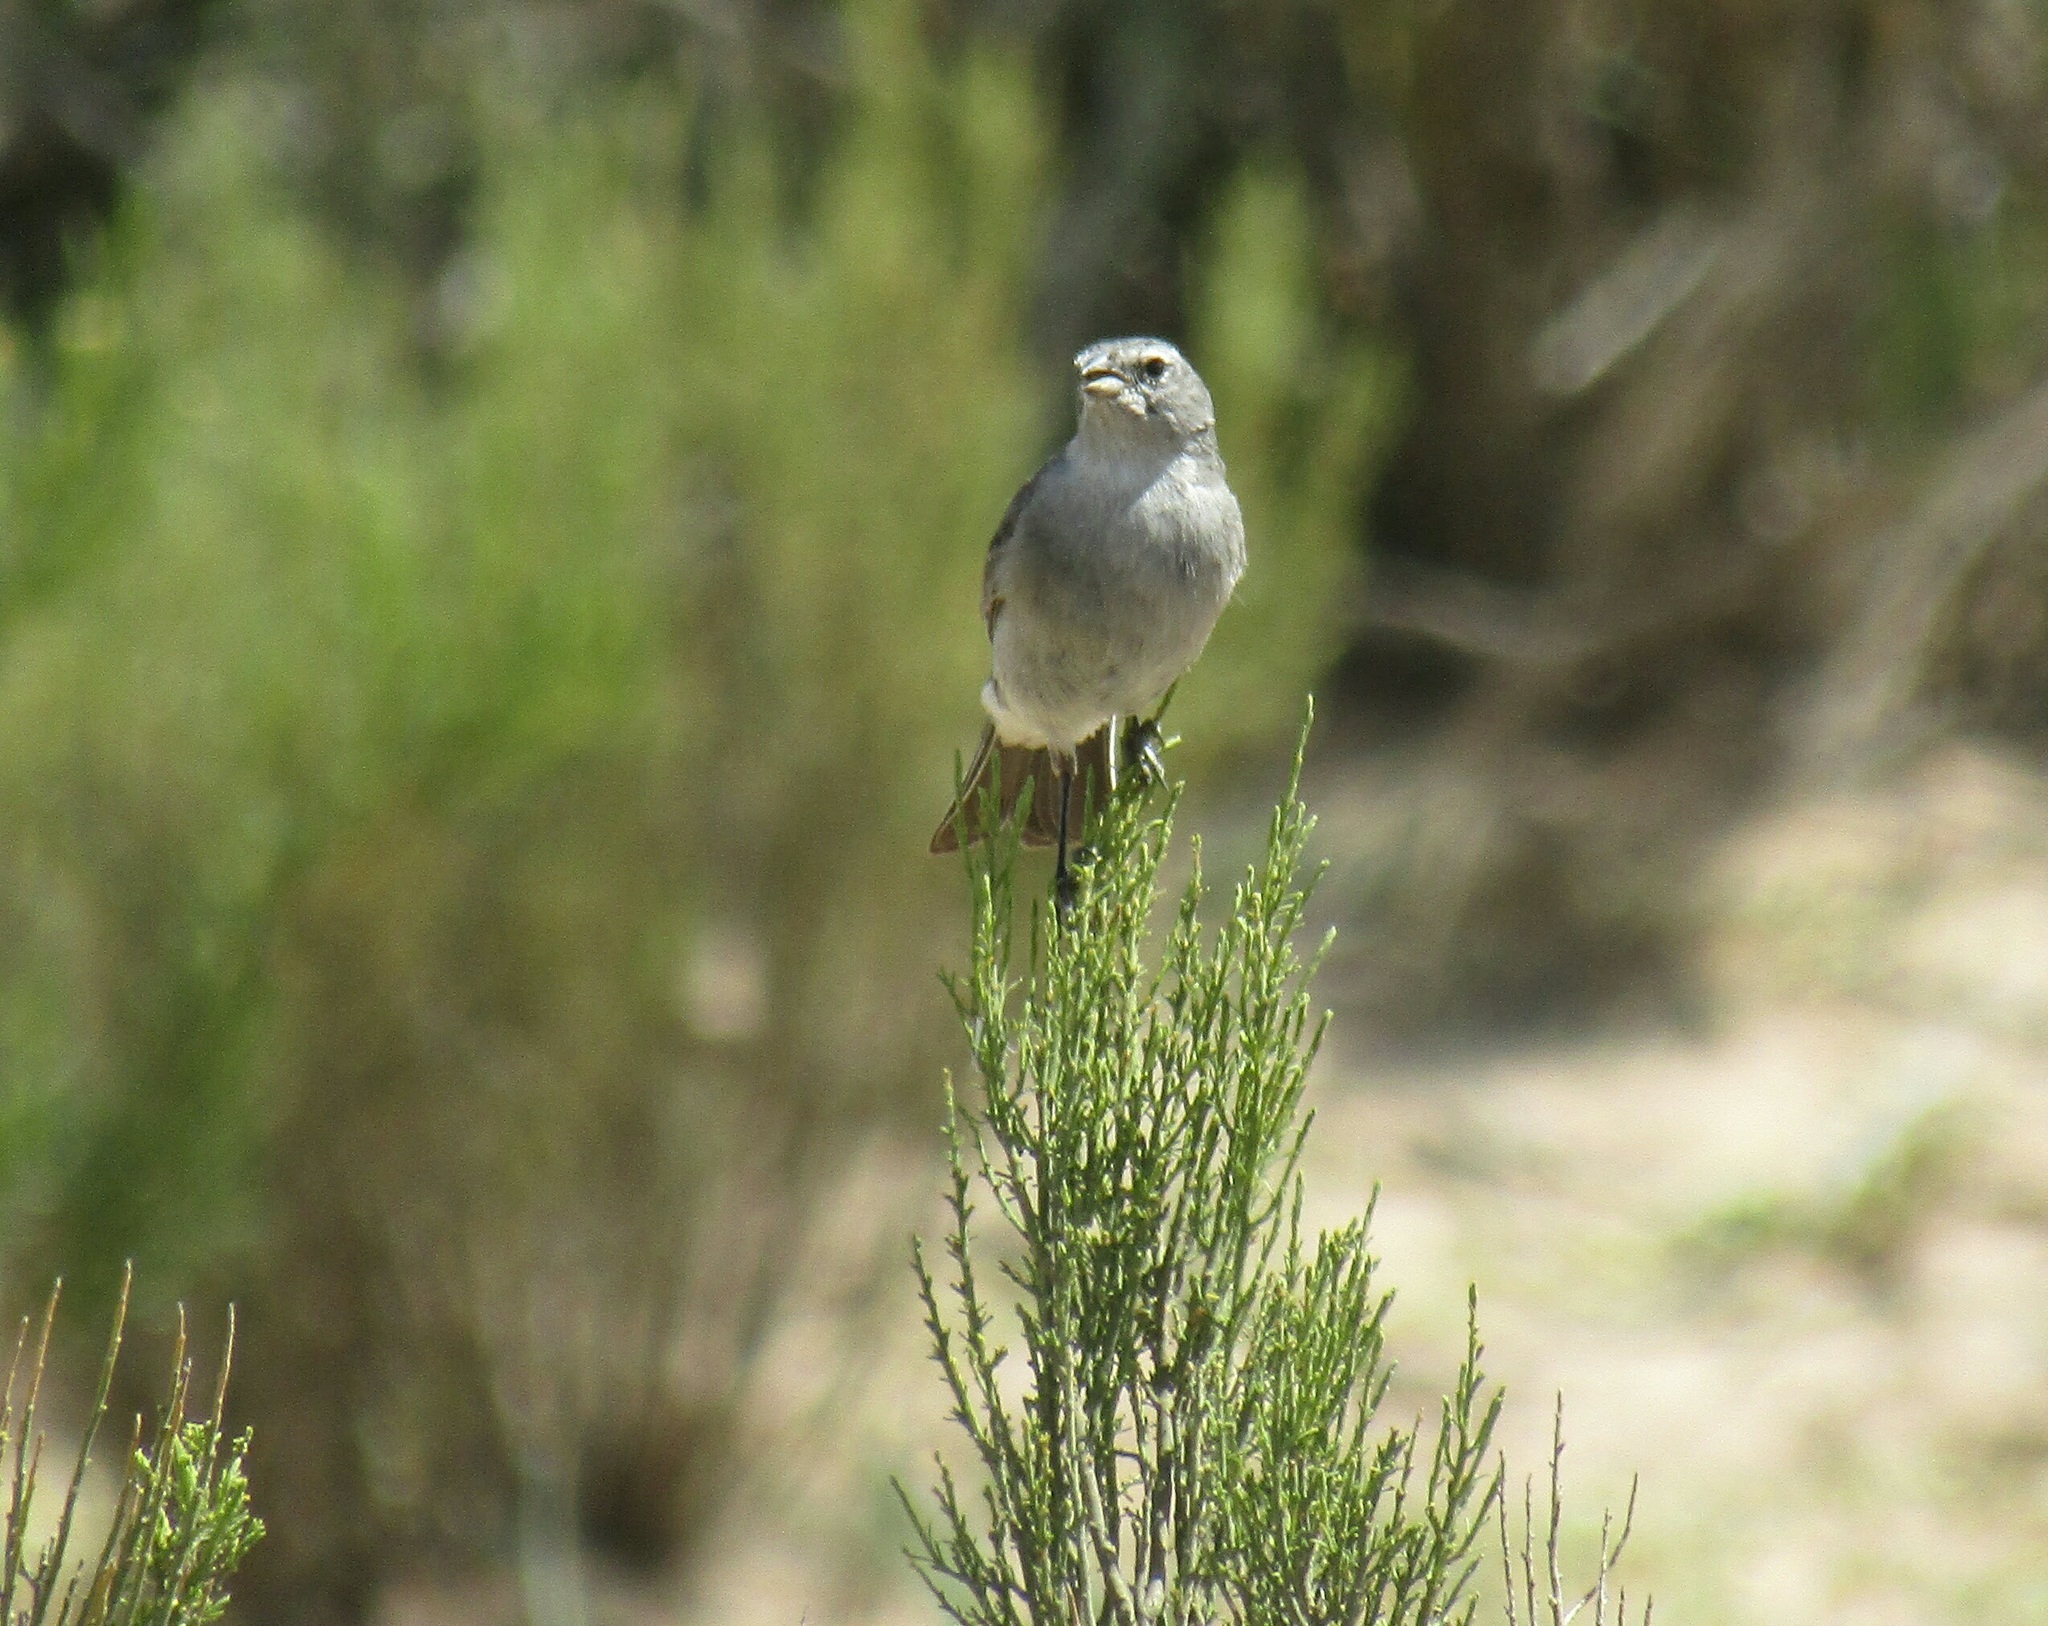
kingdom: Animalia
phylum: Chordata
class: Aves
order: Passeriformes
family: Thraupidae
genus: Geospizopsis
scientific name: Geospizopsis plebejus
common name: Ash-breasted sierra-finch
